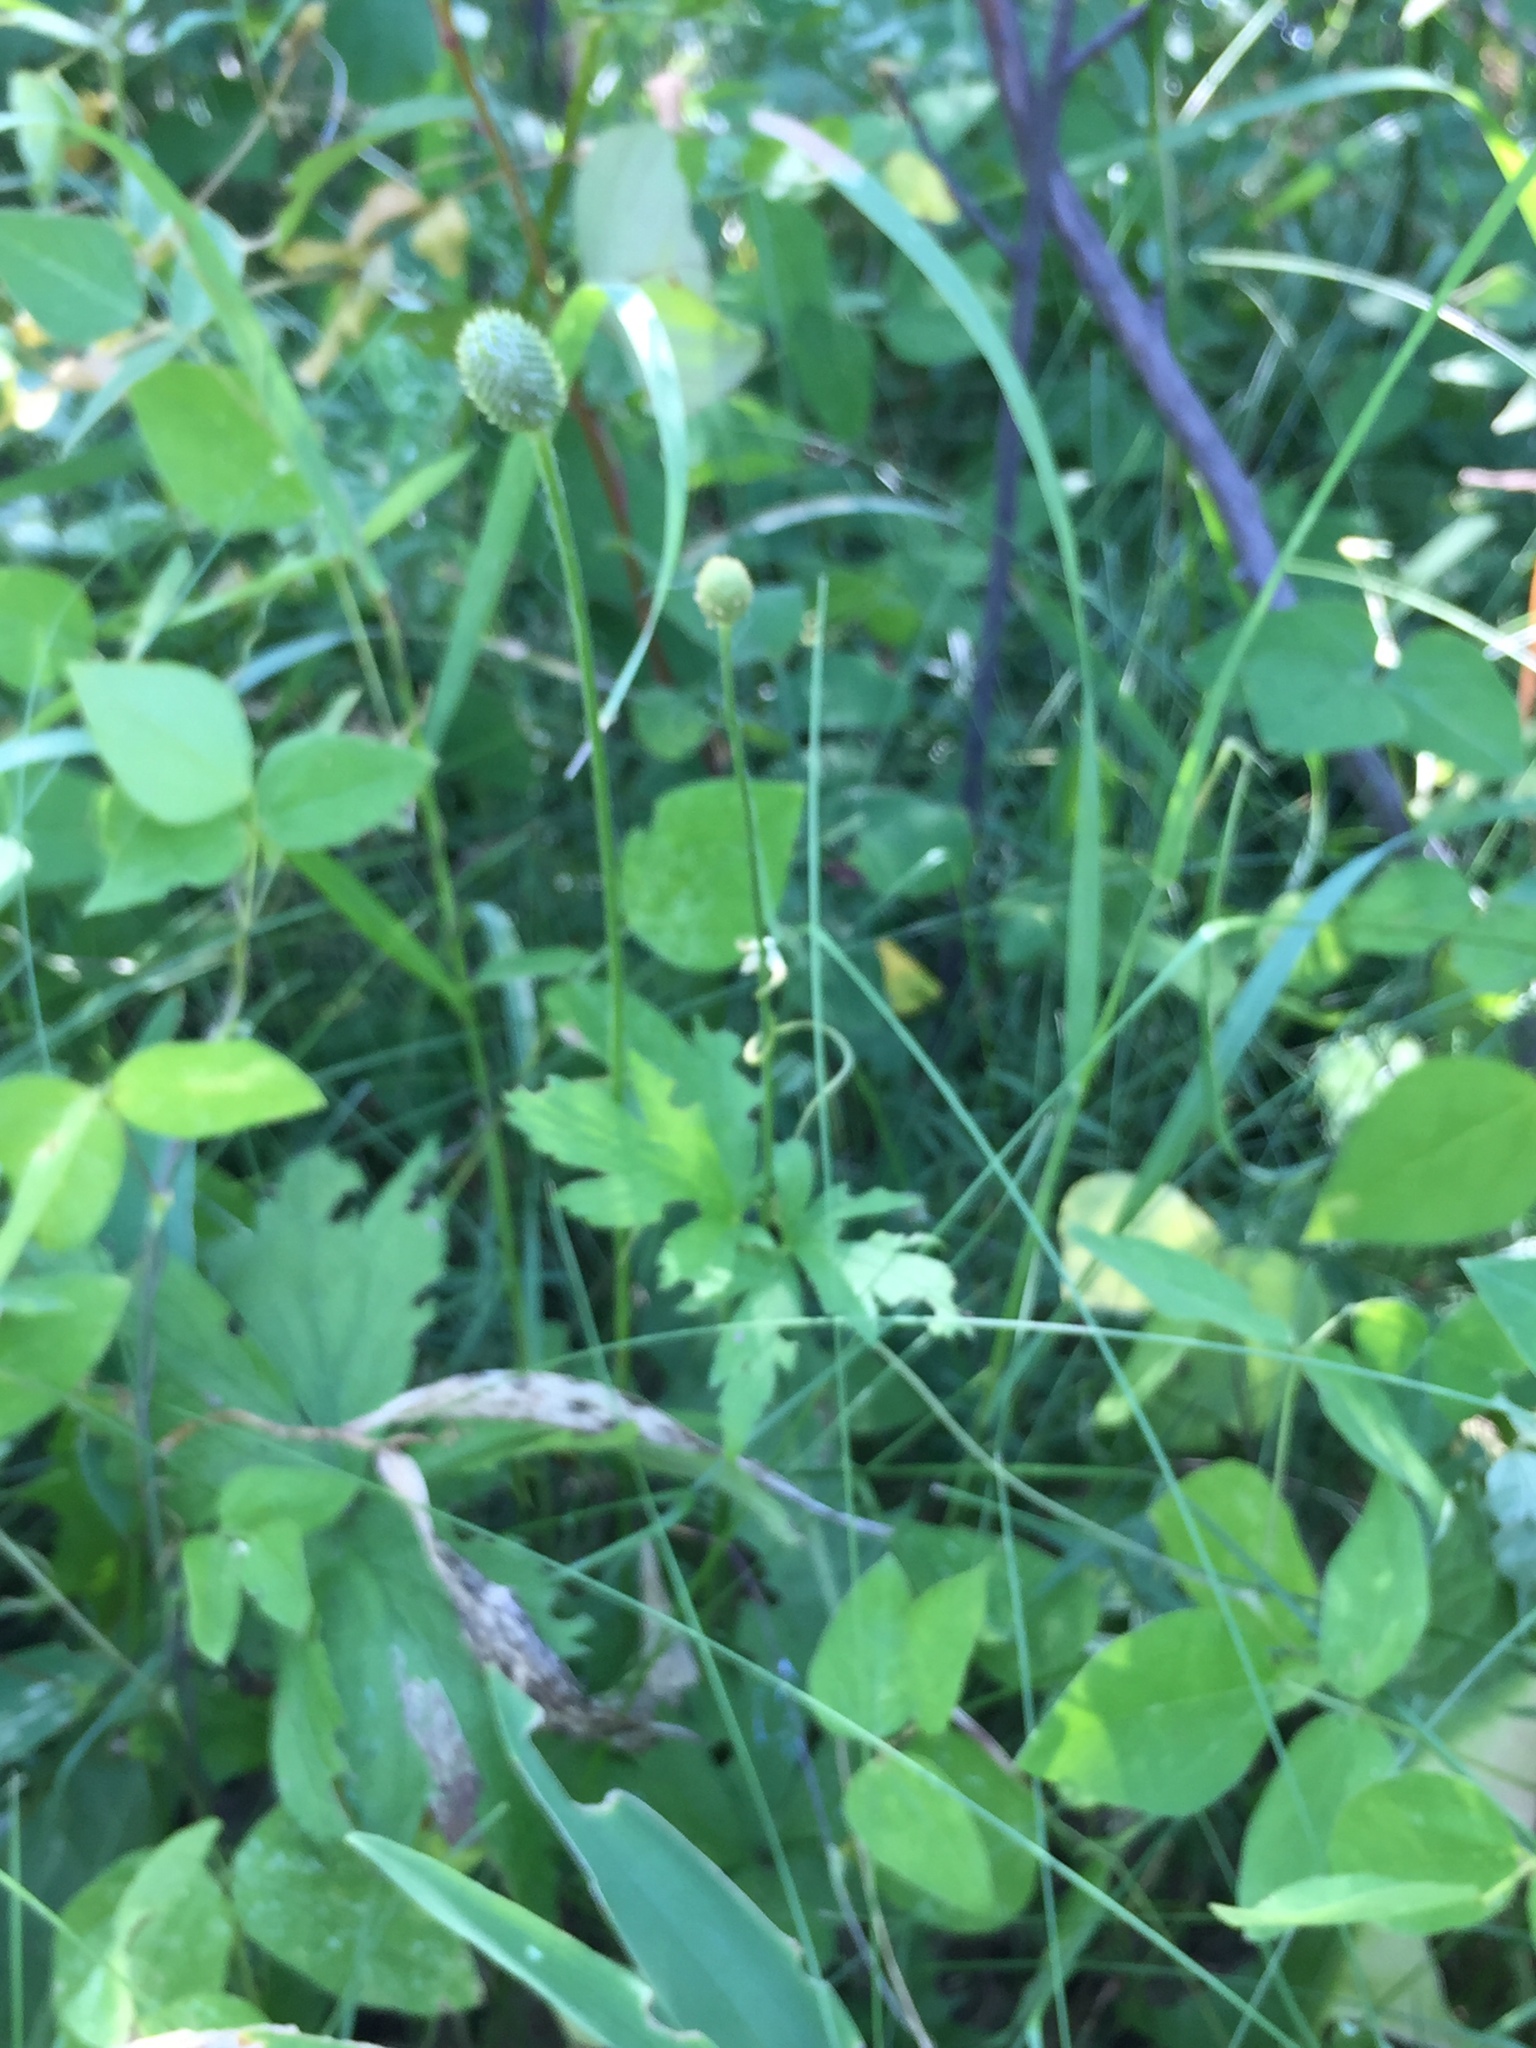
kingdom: Plantae
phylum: Tracheophyta
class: Magnoliopsida
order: Ranunculales
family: Ranunculaceae
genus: Anemone
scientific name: Anemone cylindrica
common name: Candle anemone
